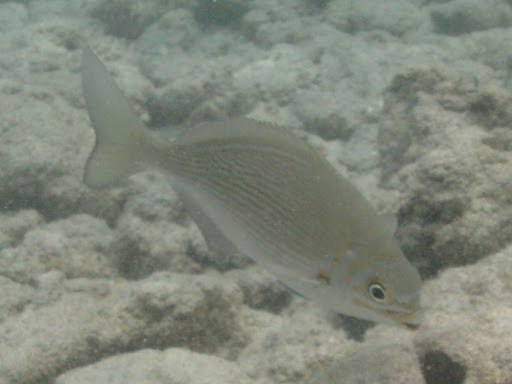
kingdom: Animalia
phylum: Chordata
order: Perciformes
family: Kyphosidae
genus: Kyphosus
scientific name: Kyphosus vaigiensis
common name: Brassy chub
